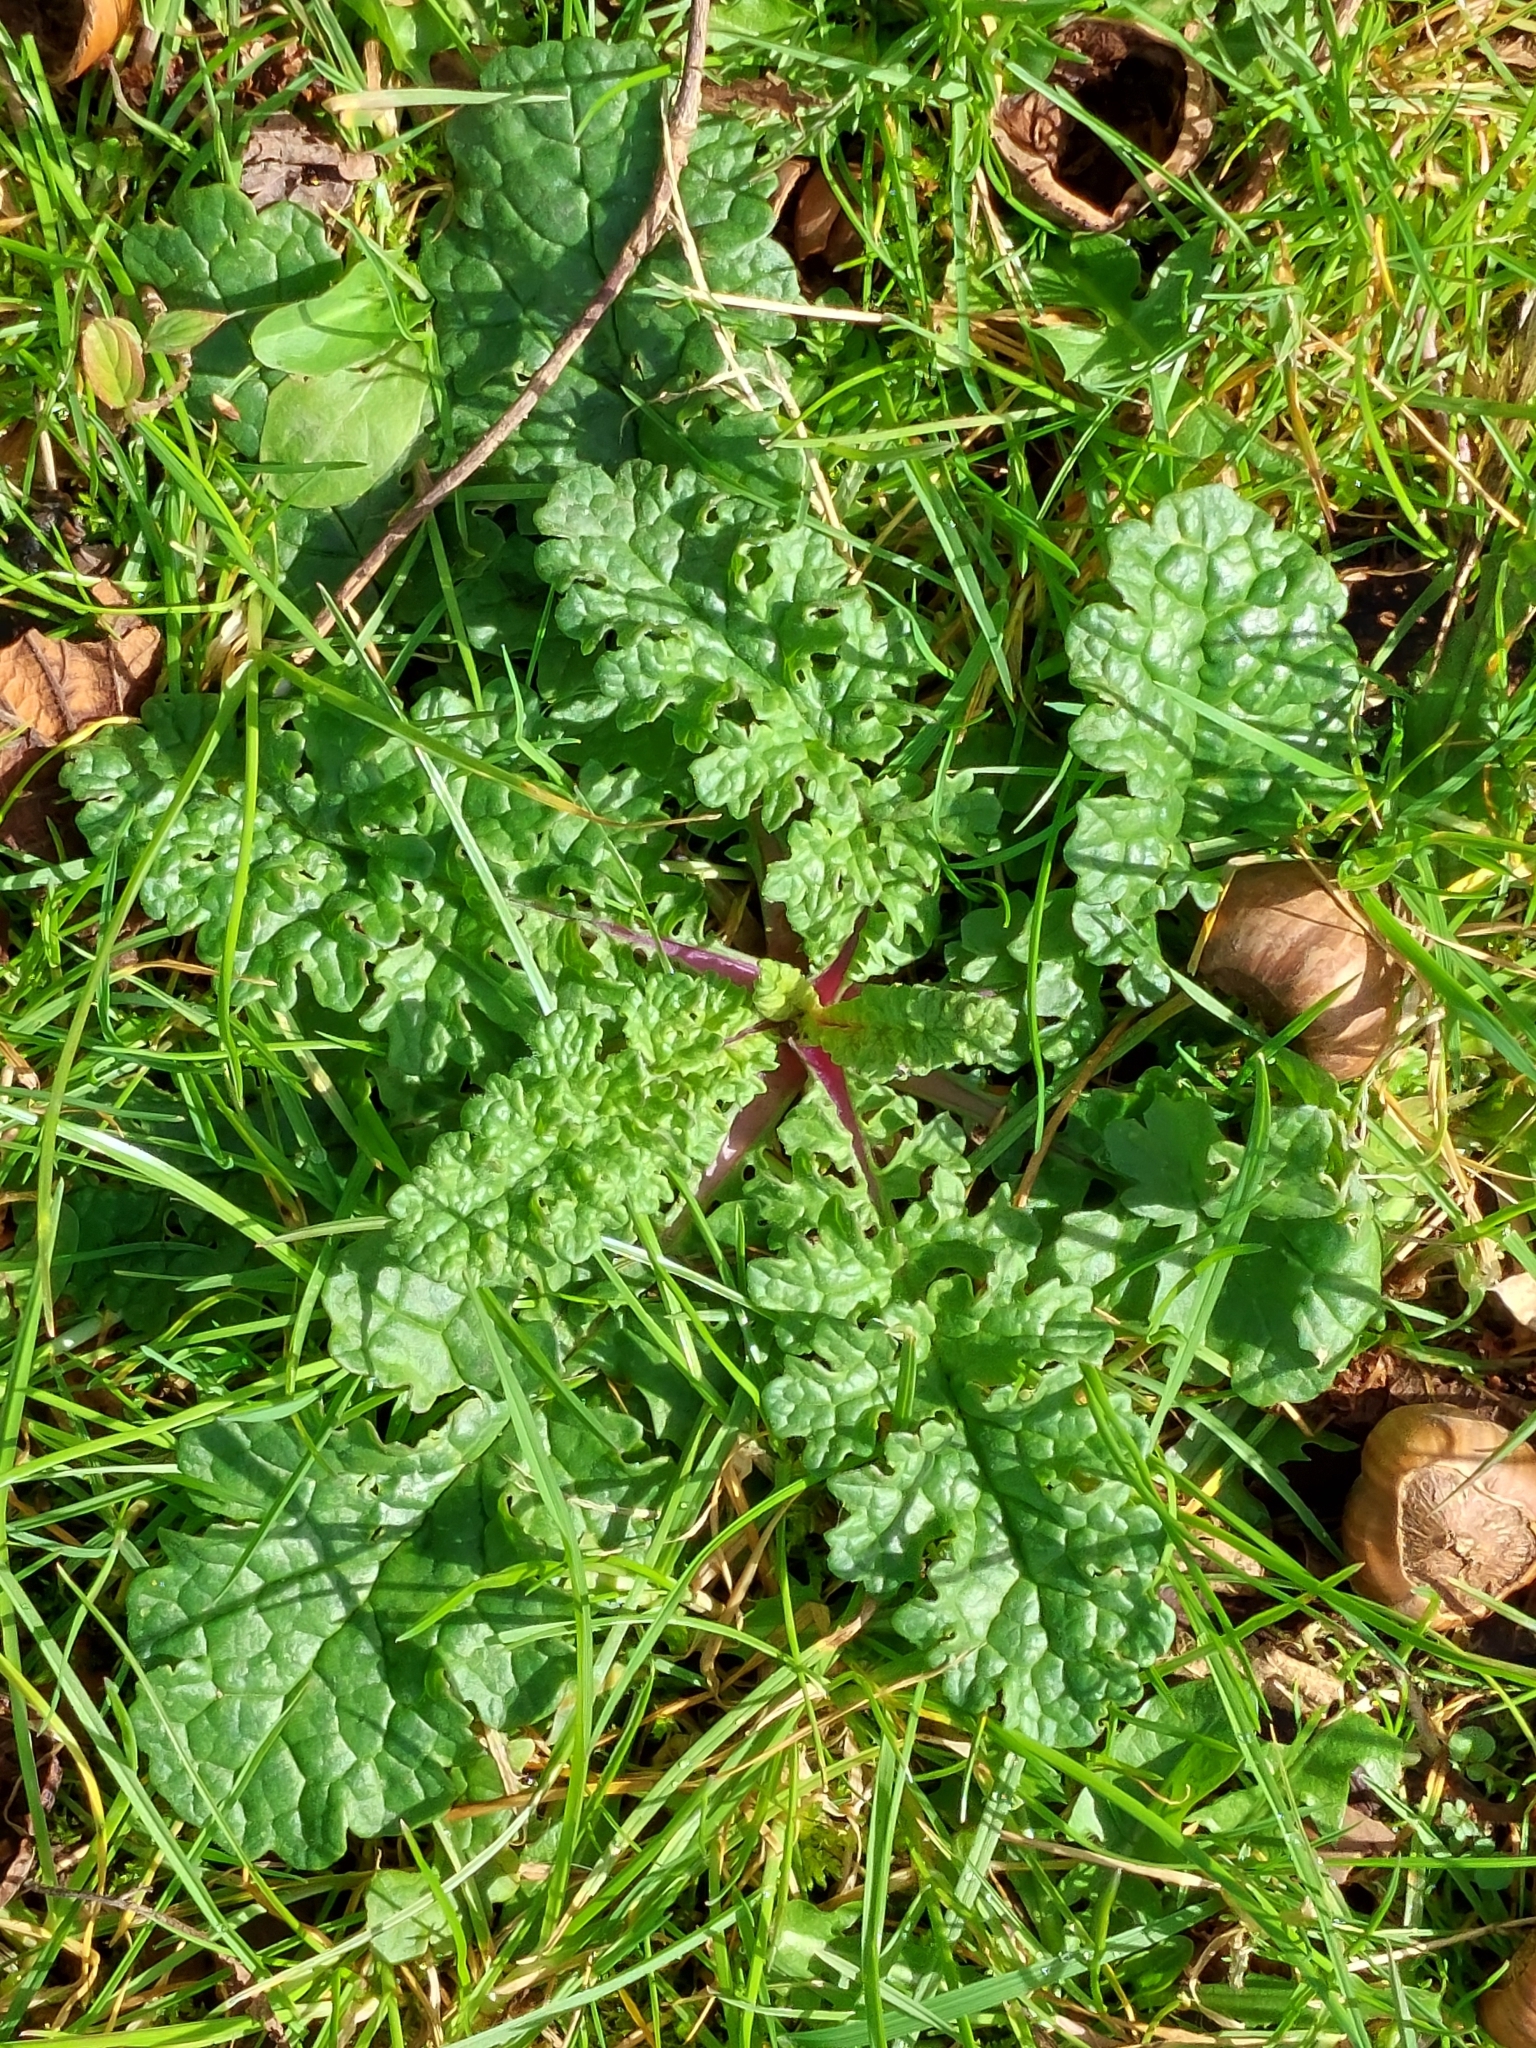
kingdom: Plantae
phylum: Tracheophyta
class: Magnoliopsida
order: Asterales
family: Asteraceae
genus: Jacobaea
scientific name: Jacobaea vulgaris
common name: Stinking willie
